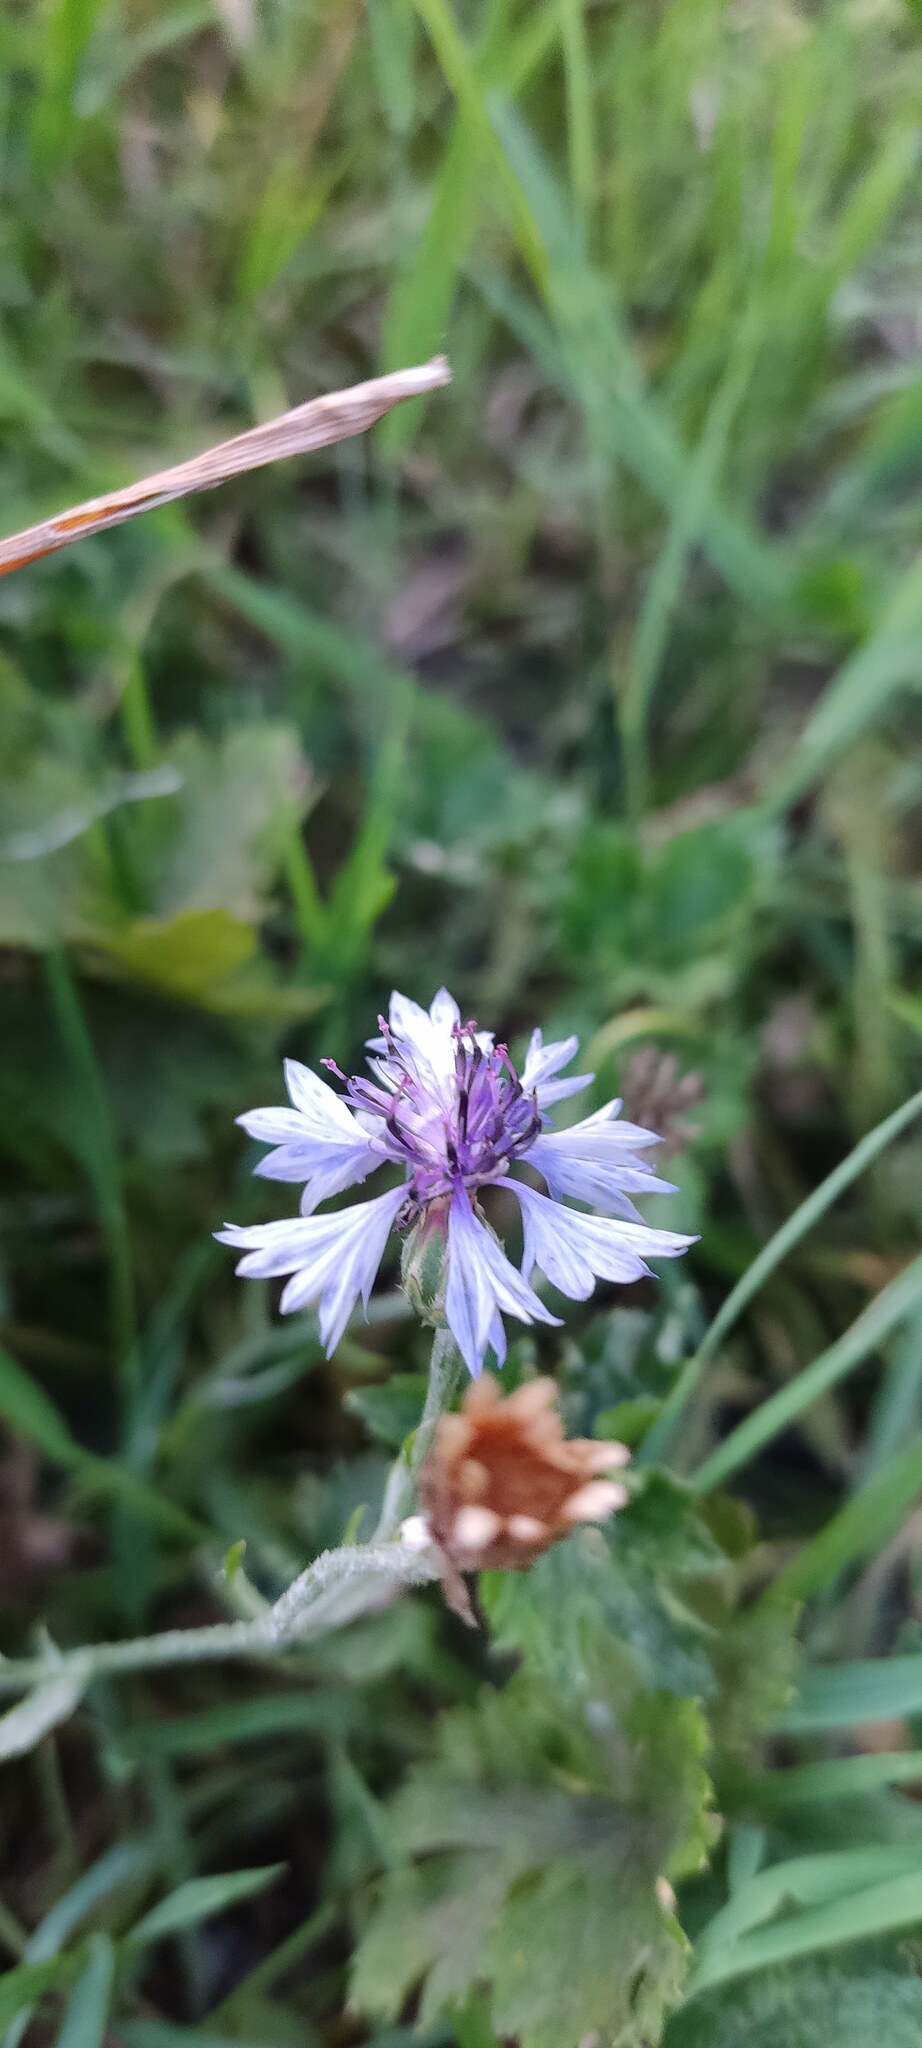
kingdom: Plantae
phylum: Tracheophyta
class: Magnoliopsida
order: Asterales
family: Asteraceae
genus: Centaurea
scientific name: Centaurea cyanus
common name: Cornflower
